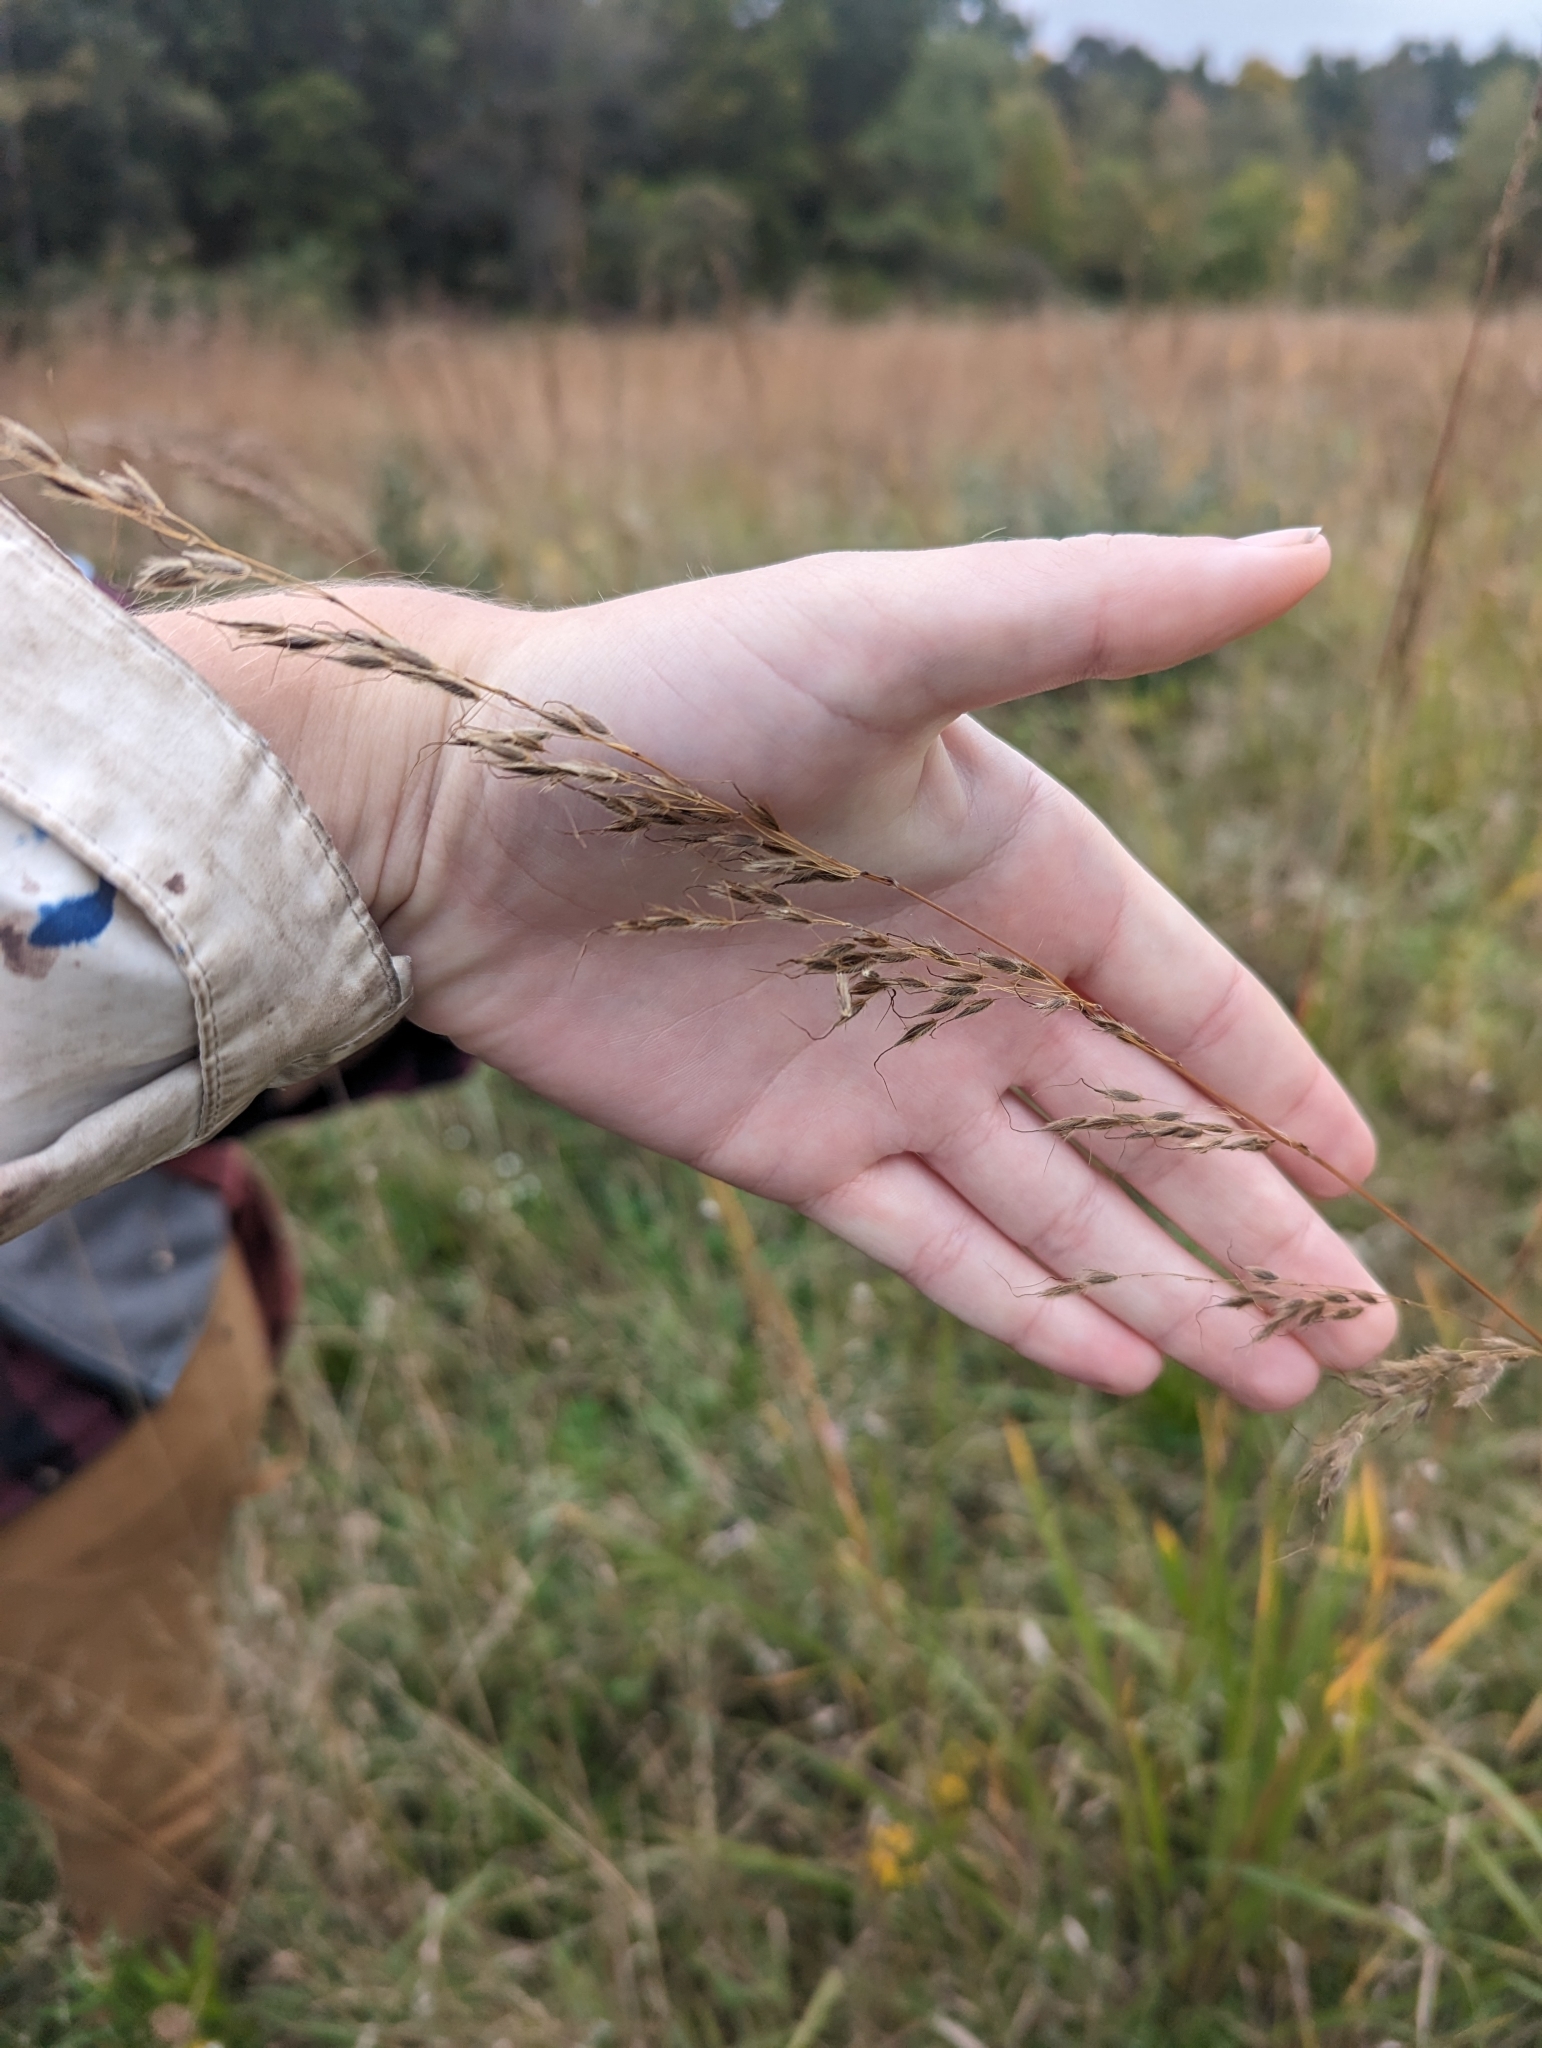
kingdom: Plantae
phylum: Tracheophyta
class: Liliopsida
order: Poales
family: Poaceae
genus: Sorghastrum
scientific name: Sorghastrum nutans
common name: Indian grass
